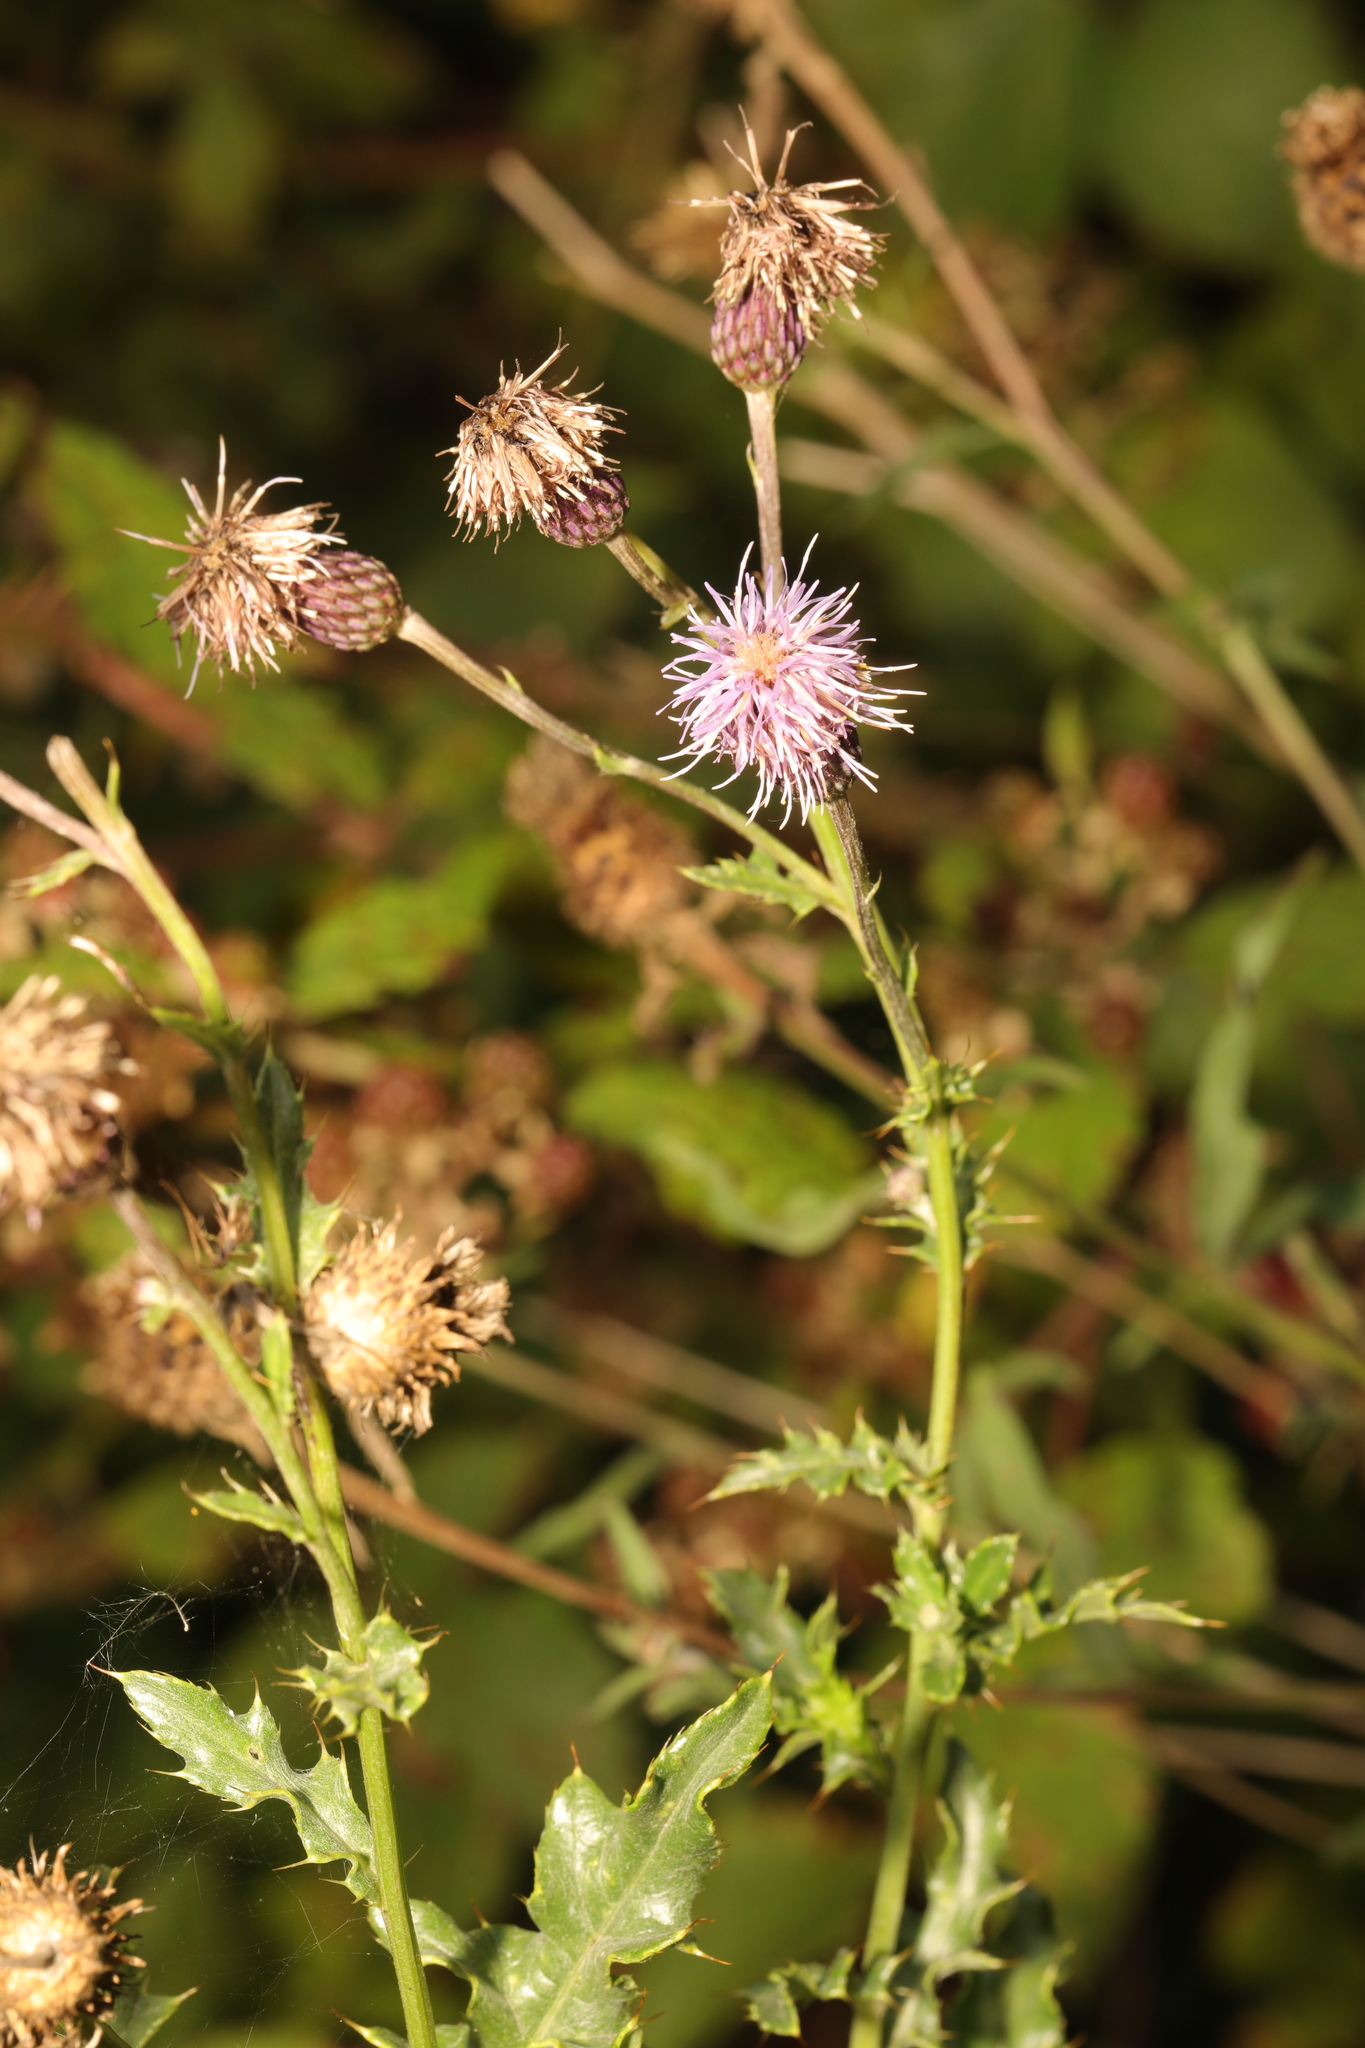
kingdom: Plantae
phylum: Tracheophyta
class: Magnoliopsida
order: Asterales
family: Asteraceae
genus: Cirsium
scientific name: Cirsium arvense
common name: Creeping thistle
